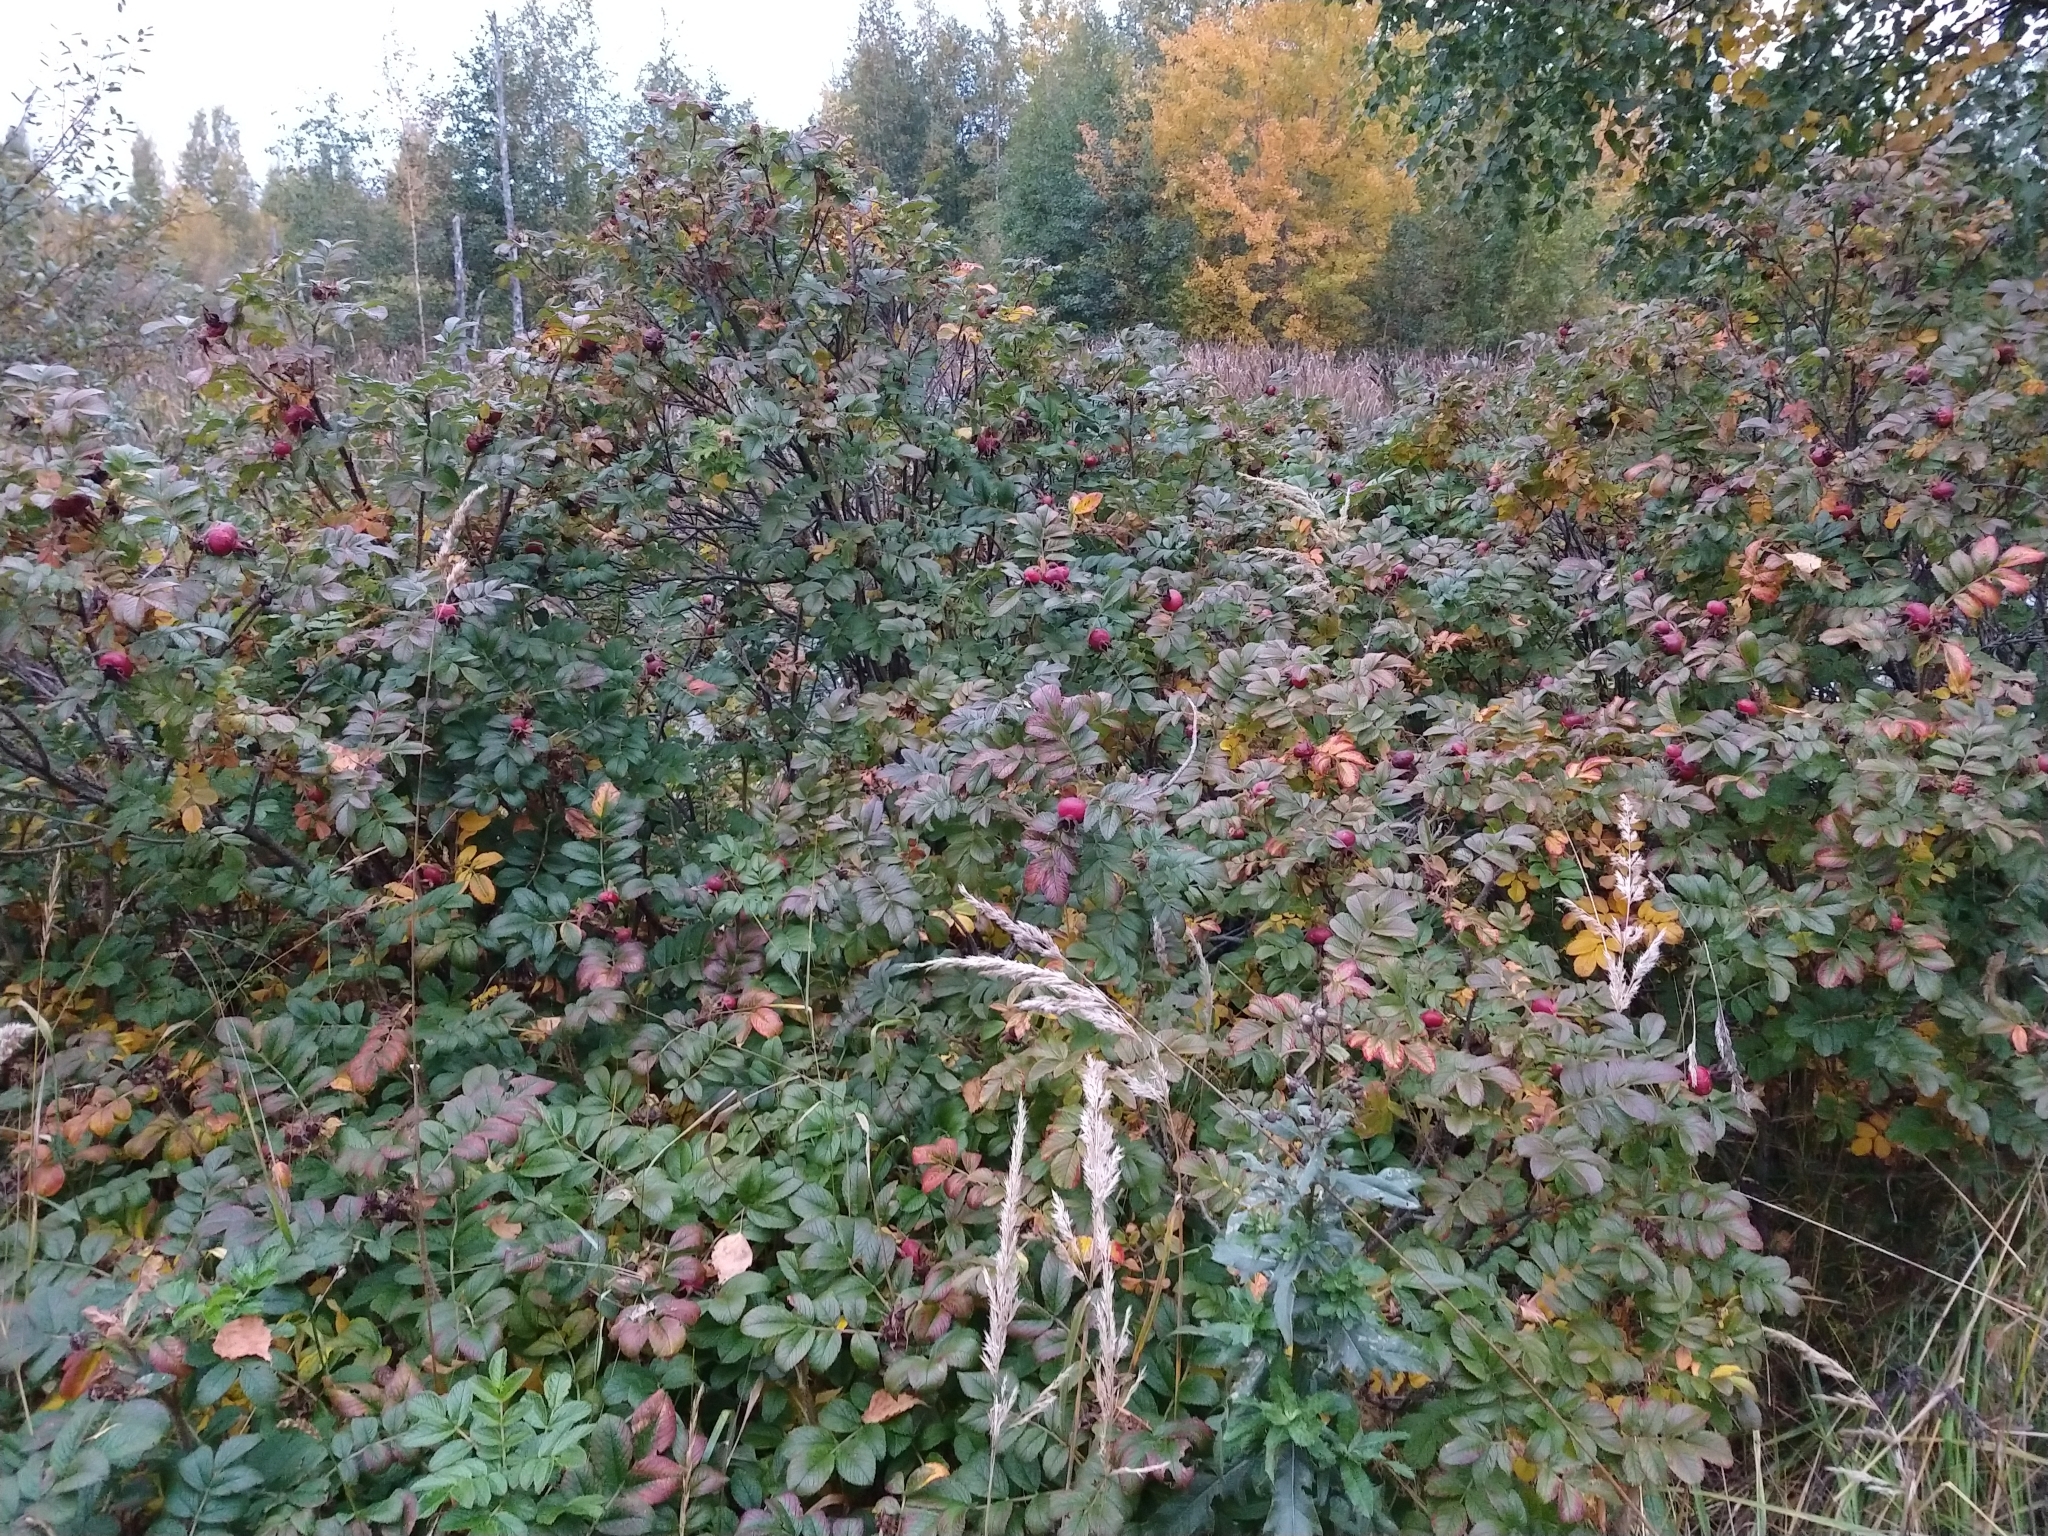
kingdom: Plantae
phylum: Tracheophyta
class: Magnoliopsida
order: Rosales
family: Rosaceae
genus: Rosa
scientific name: Rosa rugosa
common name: Japanese rose
